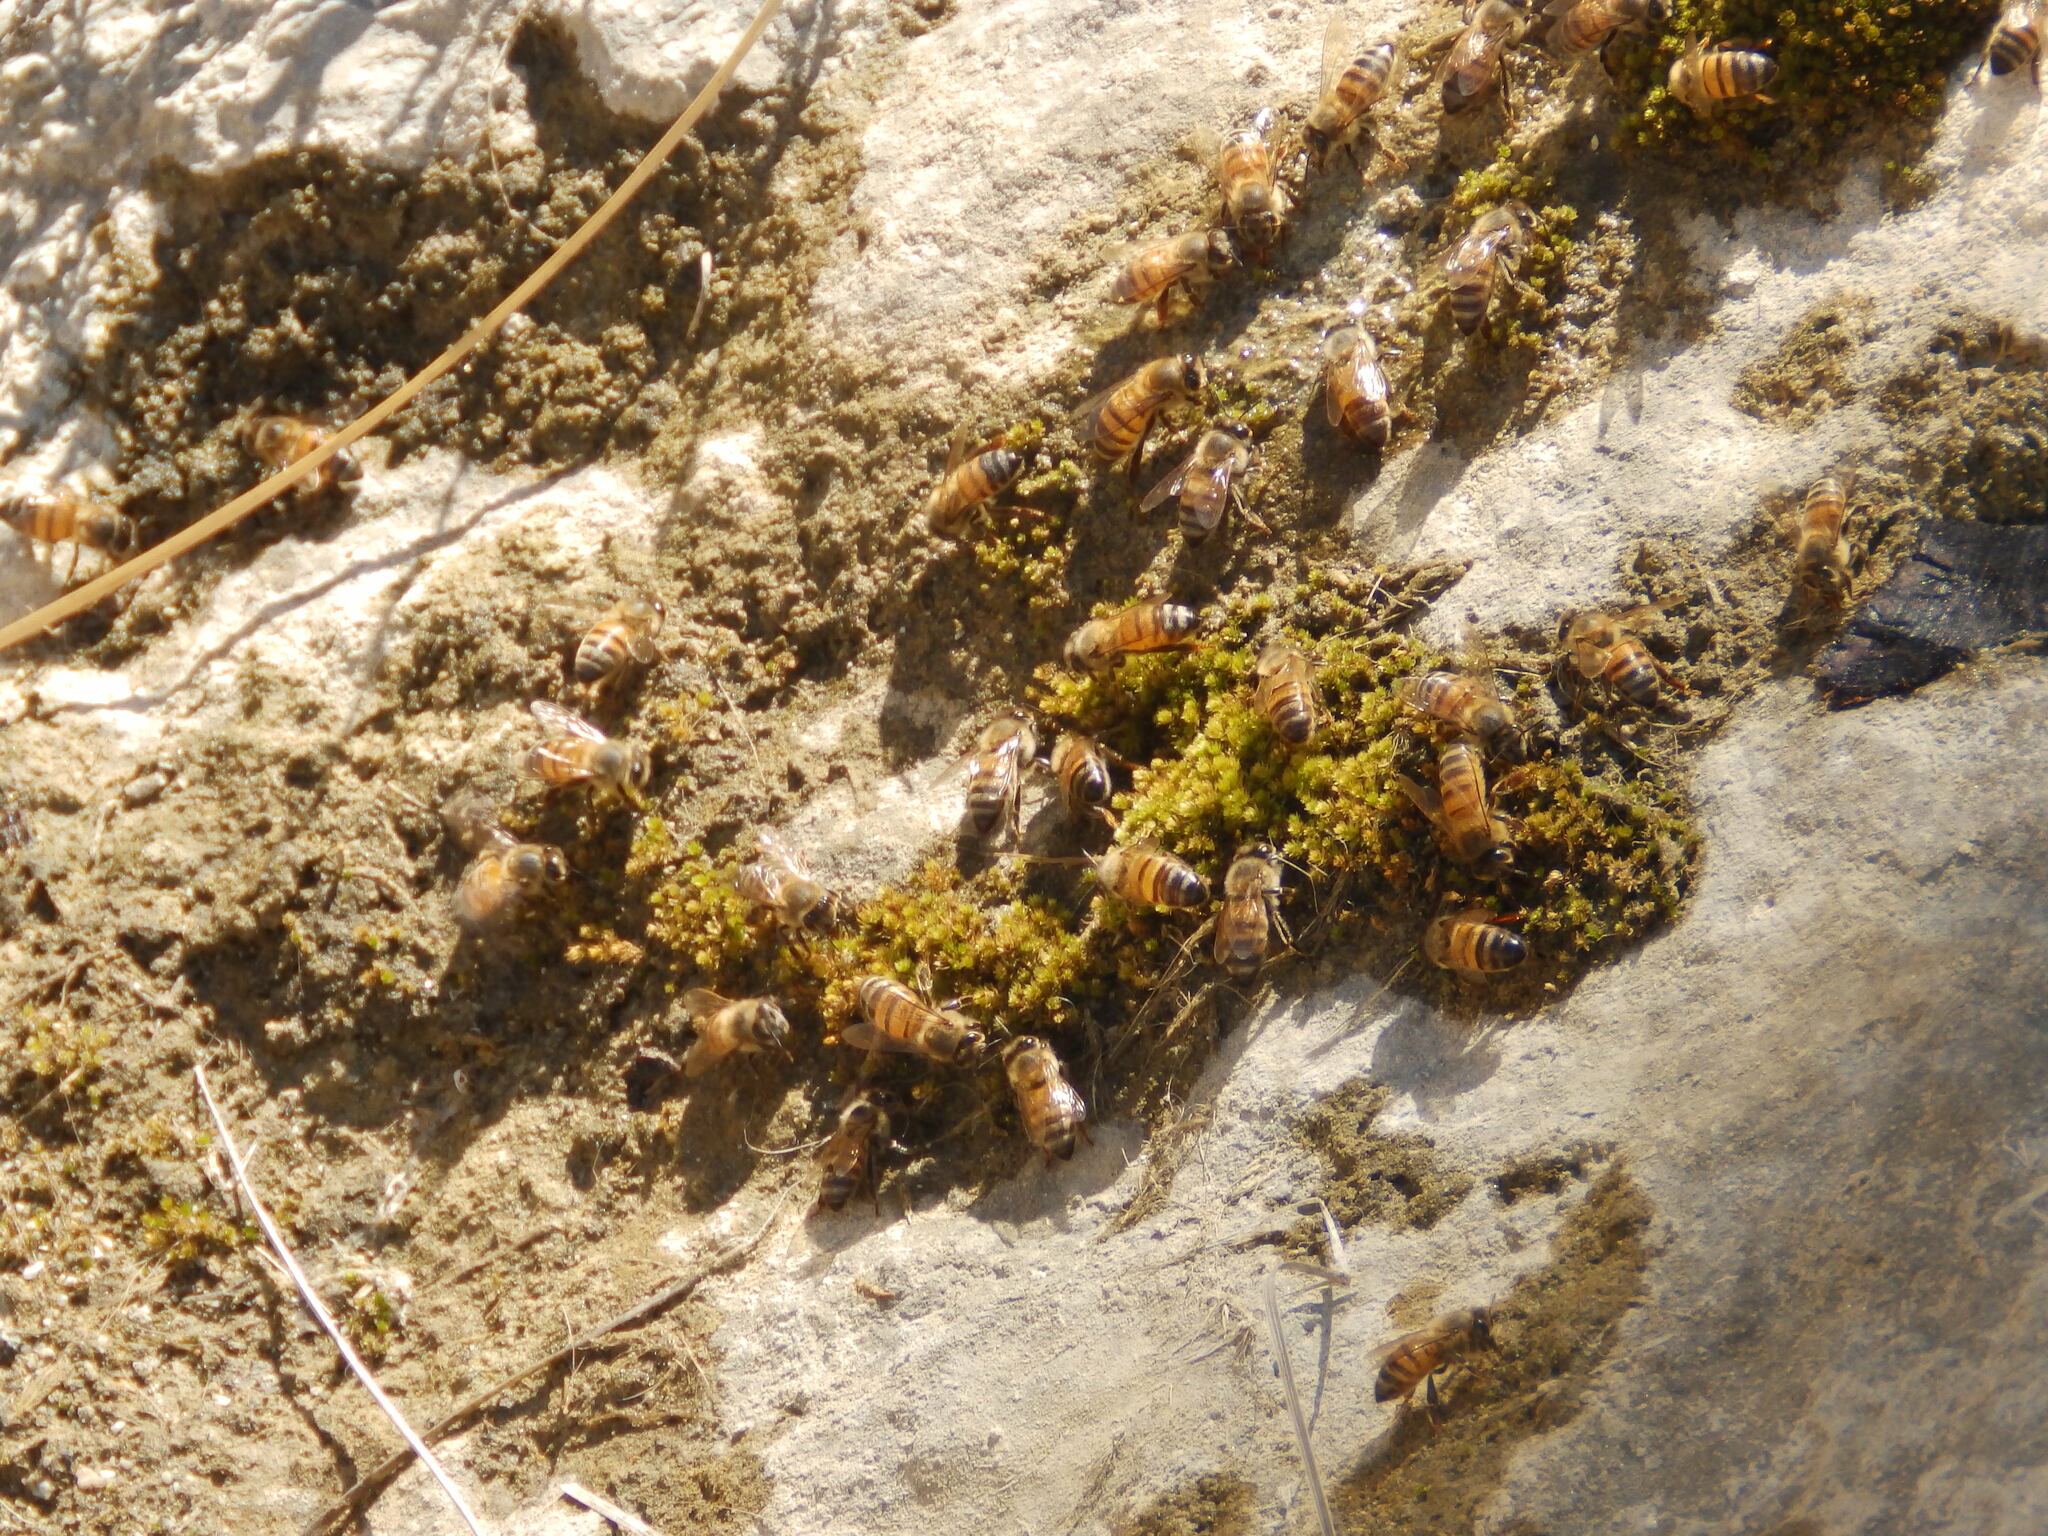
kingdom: Animalia
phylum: Arthropoda
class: Insecta
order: Hymenoptera
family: Apidae
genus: Apis
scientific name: Apis mellifera
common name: Honey bee
